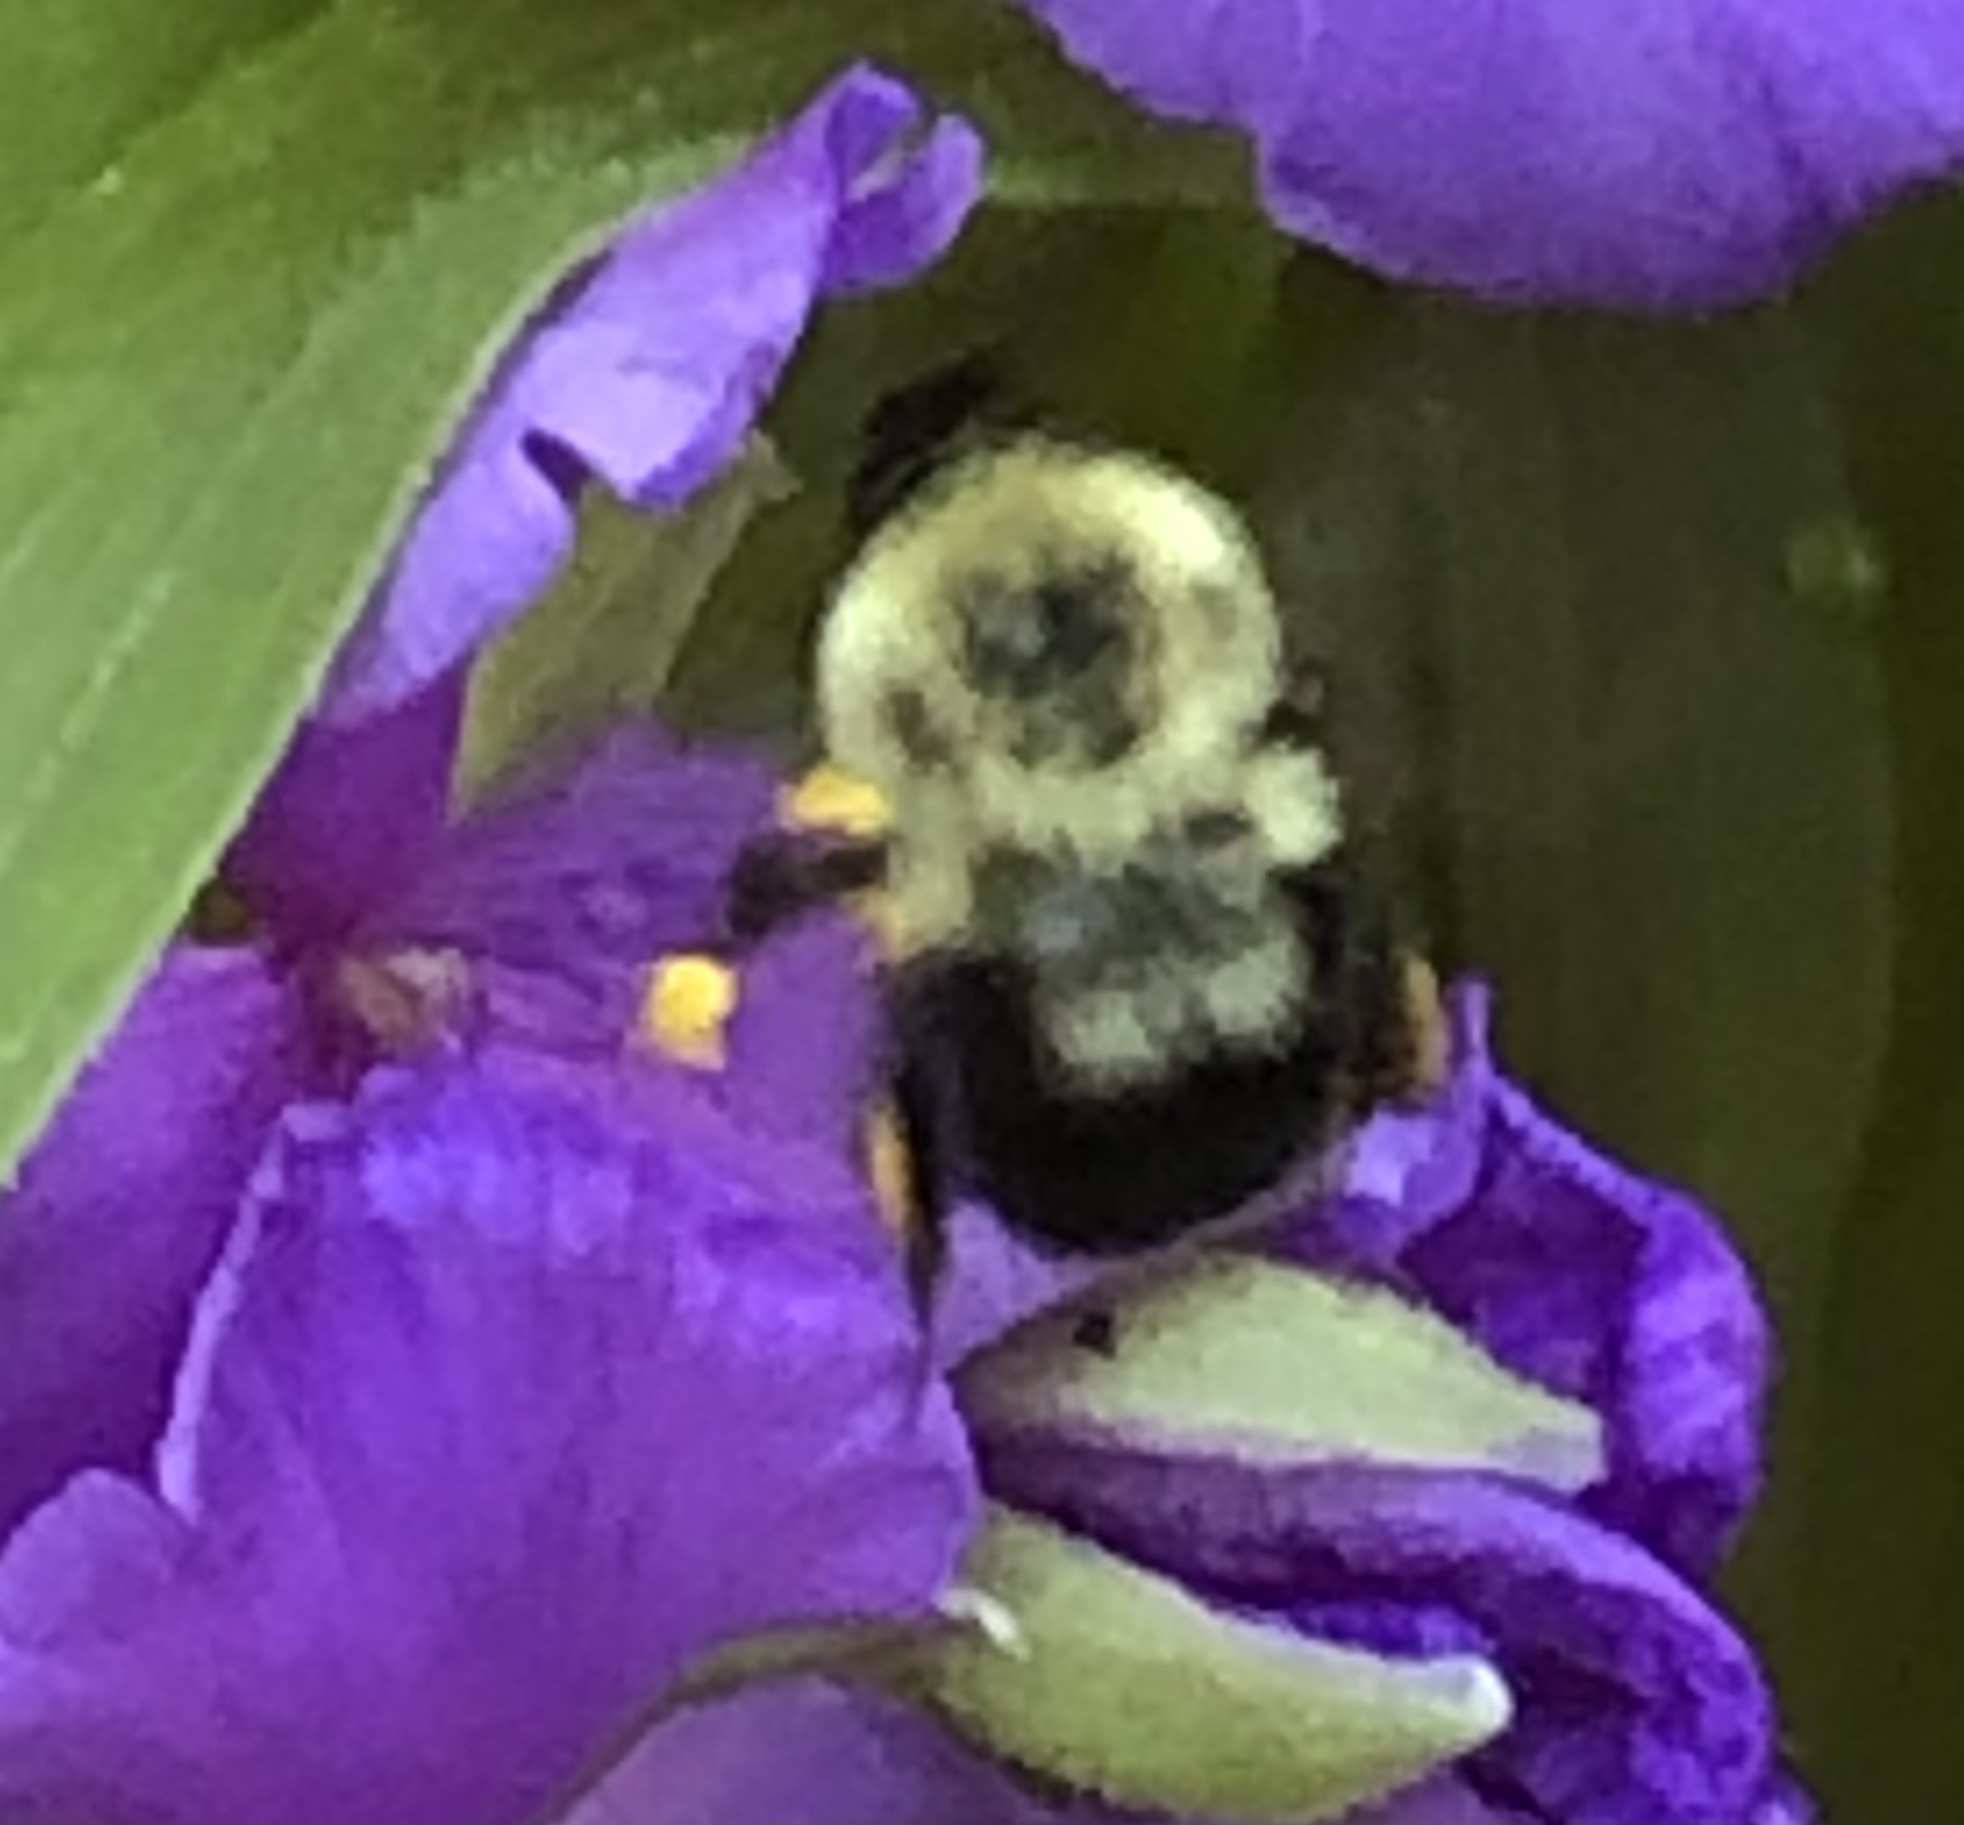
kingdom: Animalia
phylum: Arthropoda
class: Insecta
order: Hymenoptera
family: Apidae
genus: Bombus
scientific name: Bombus bimaculatus
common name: Two-spotted bumble bee
